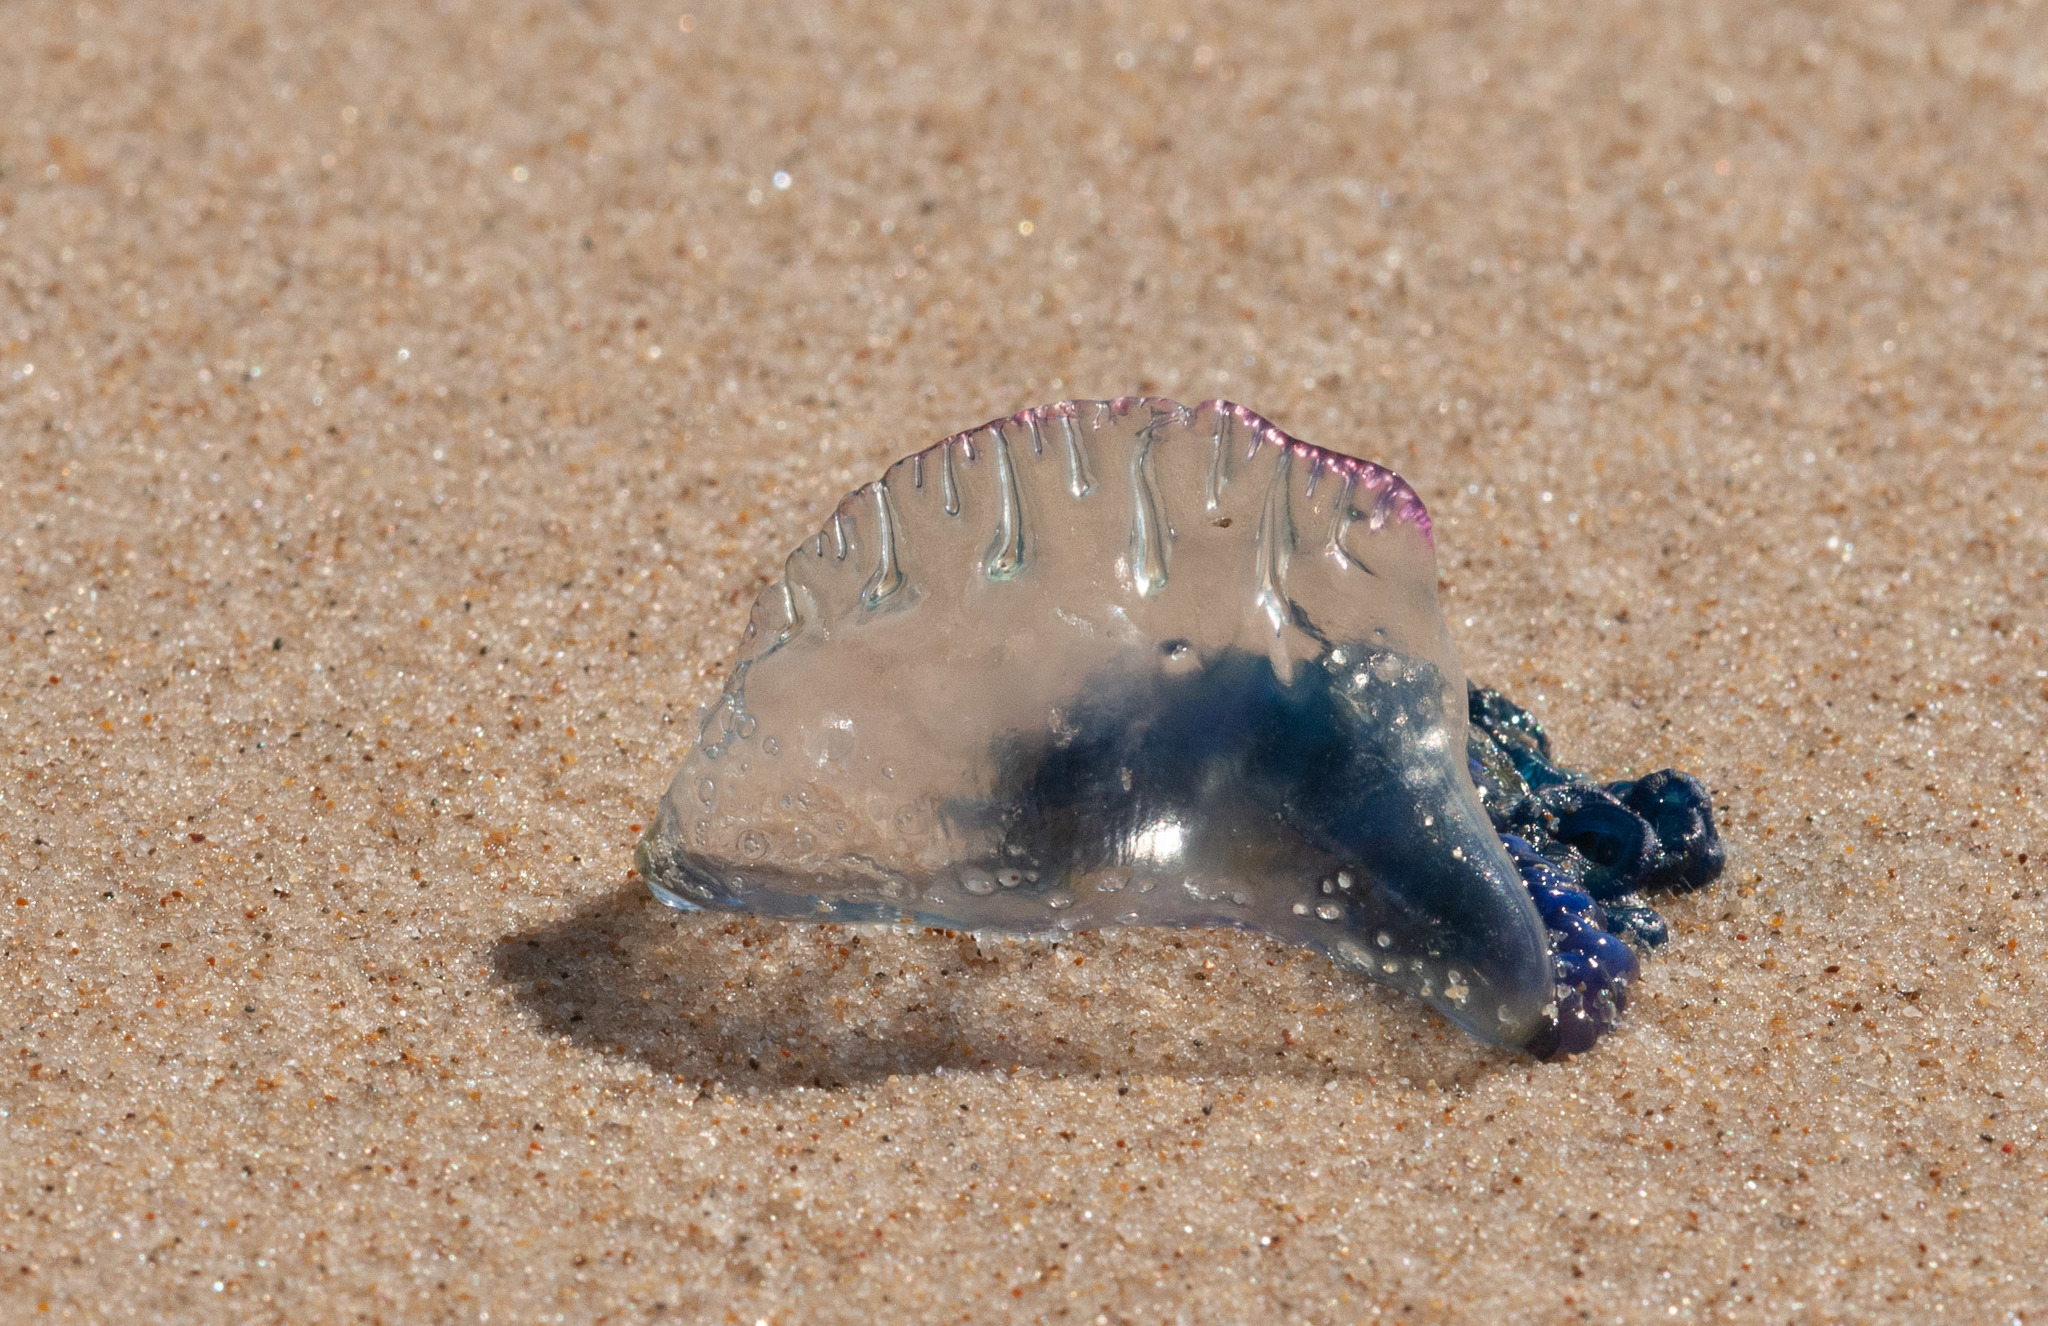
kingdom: Animalia
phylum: Cnidaria
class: Hydrozoa
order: Siphonophorae
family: Physaliidae
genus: Physalia
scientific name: Physalia physalis
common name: Portuguese man-of-war
